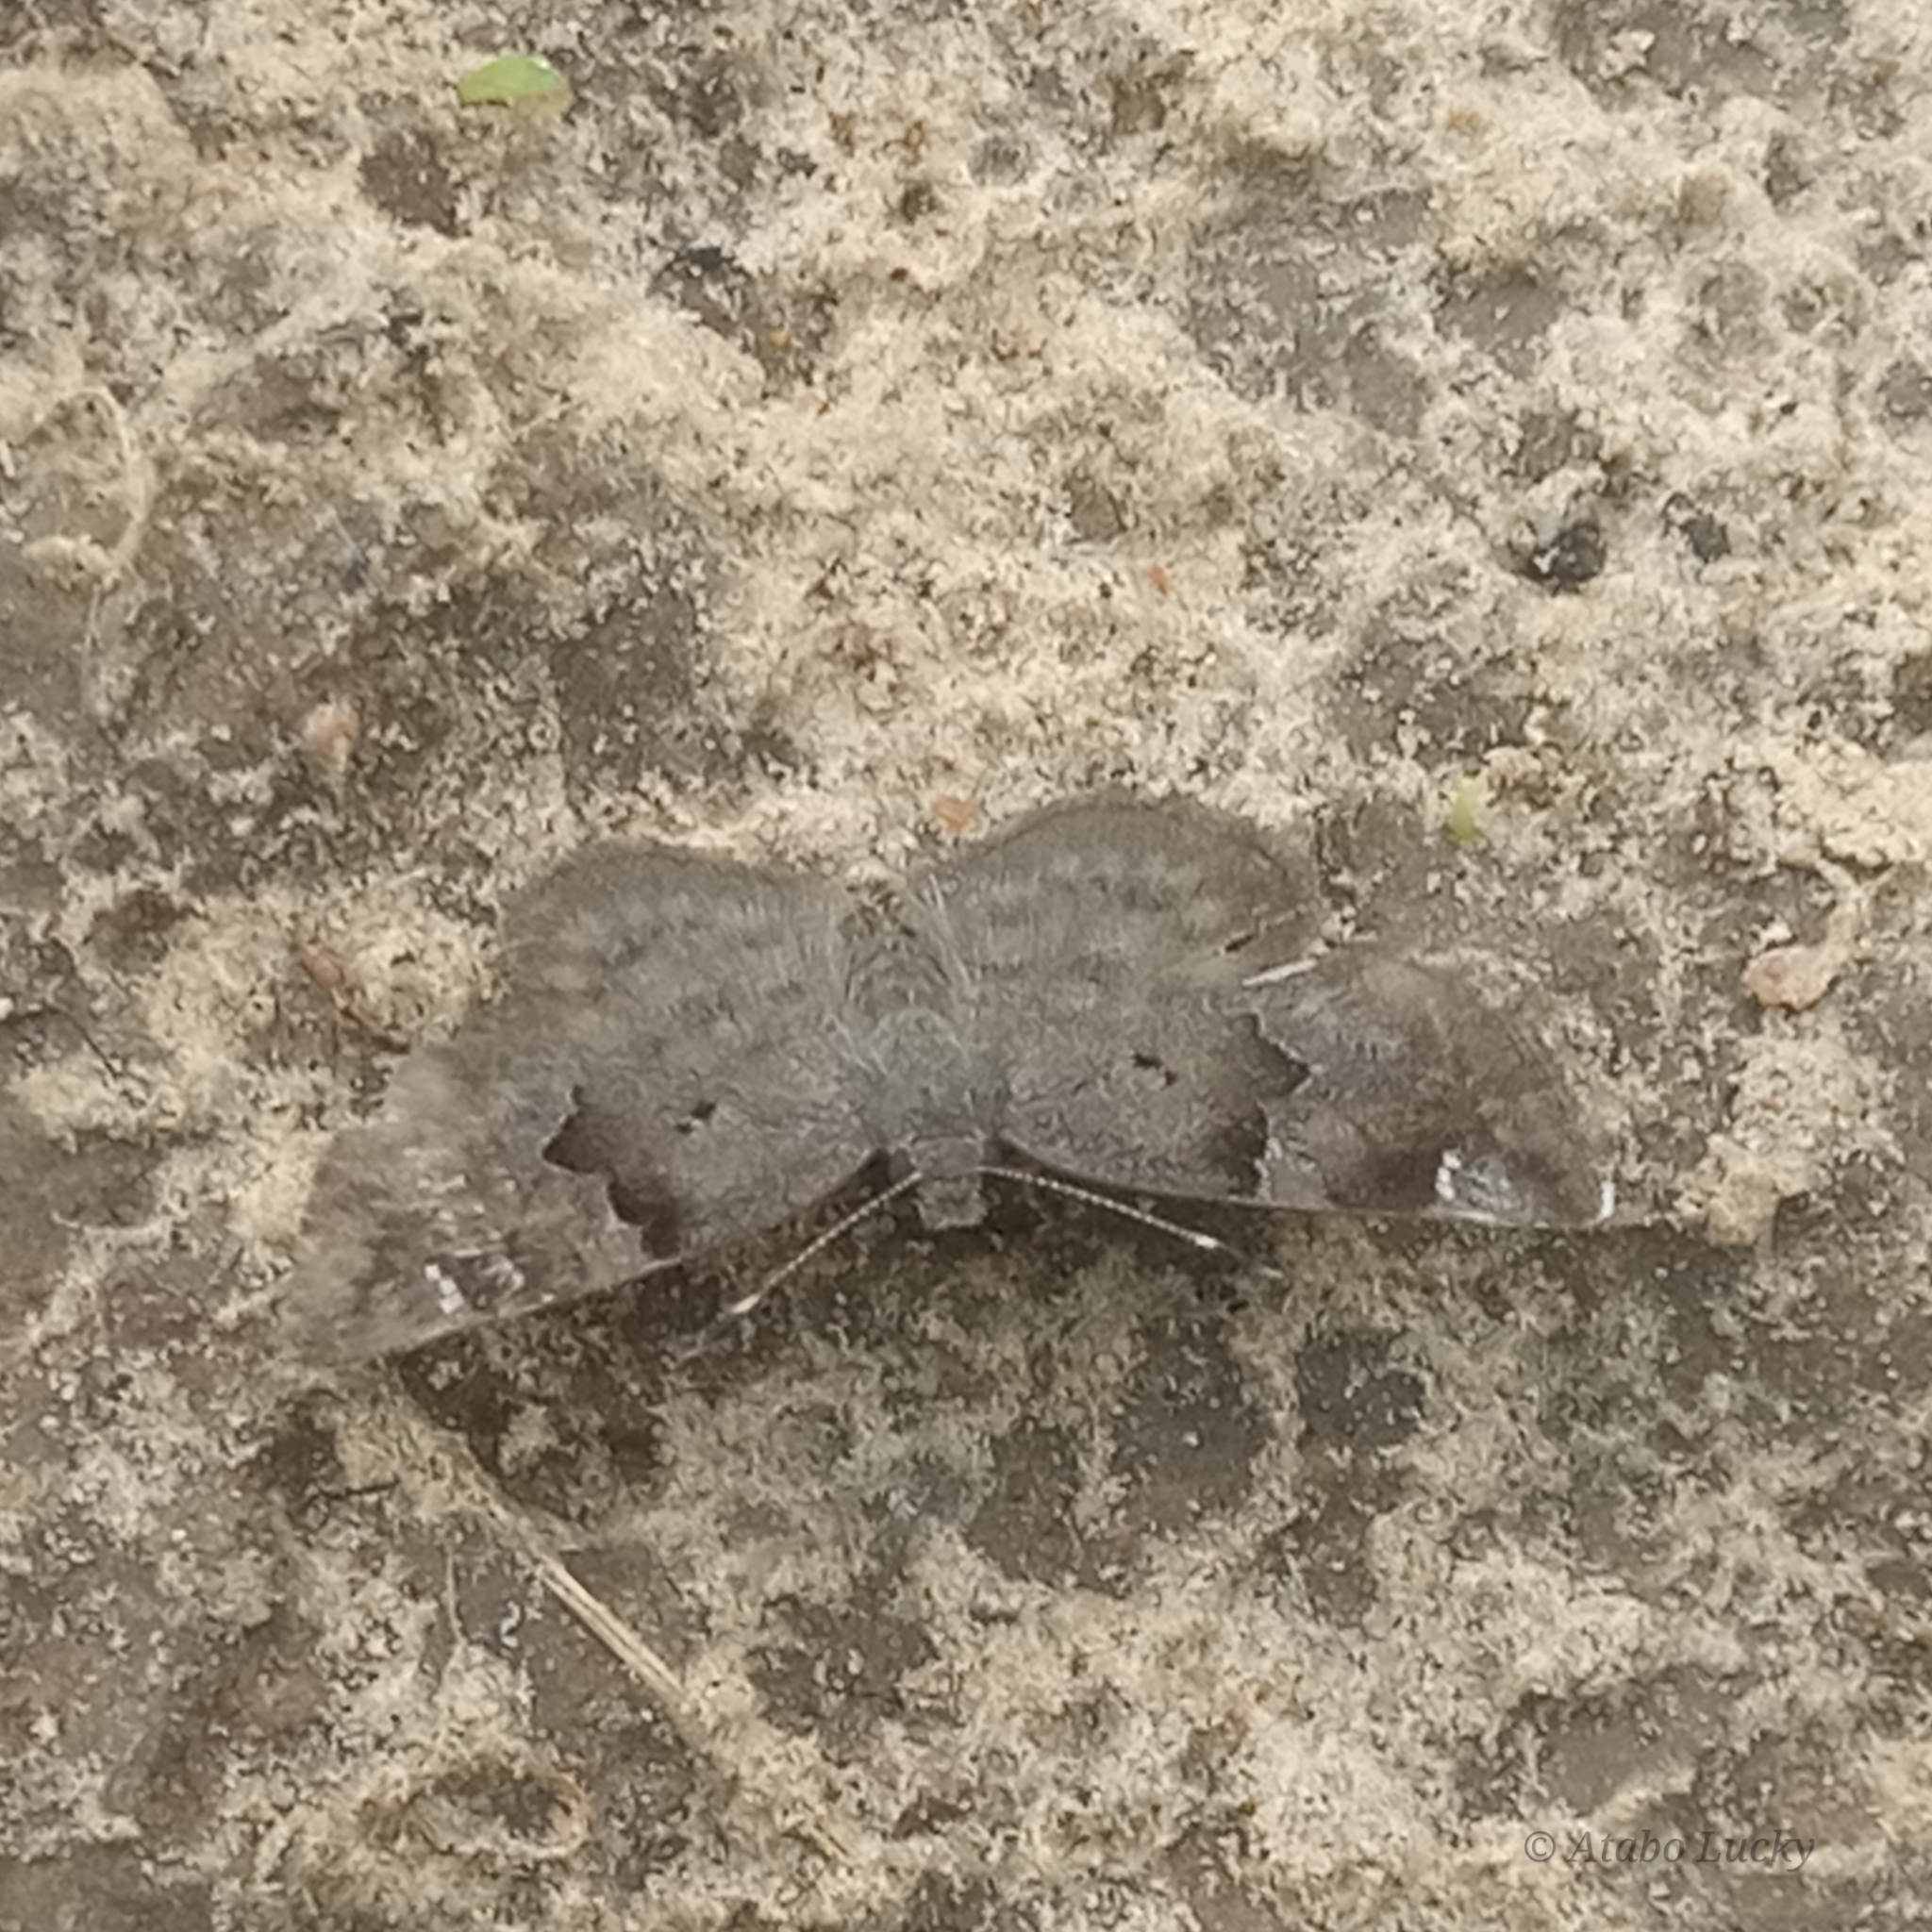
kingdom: Animalia
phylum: Arthropoda
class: Insecta
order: Lepidoptera
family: Hesperiidae
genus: Sarangesa
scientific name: Sarangesa laelius
